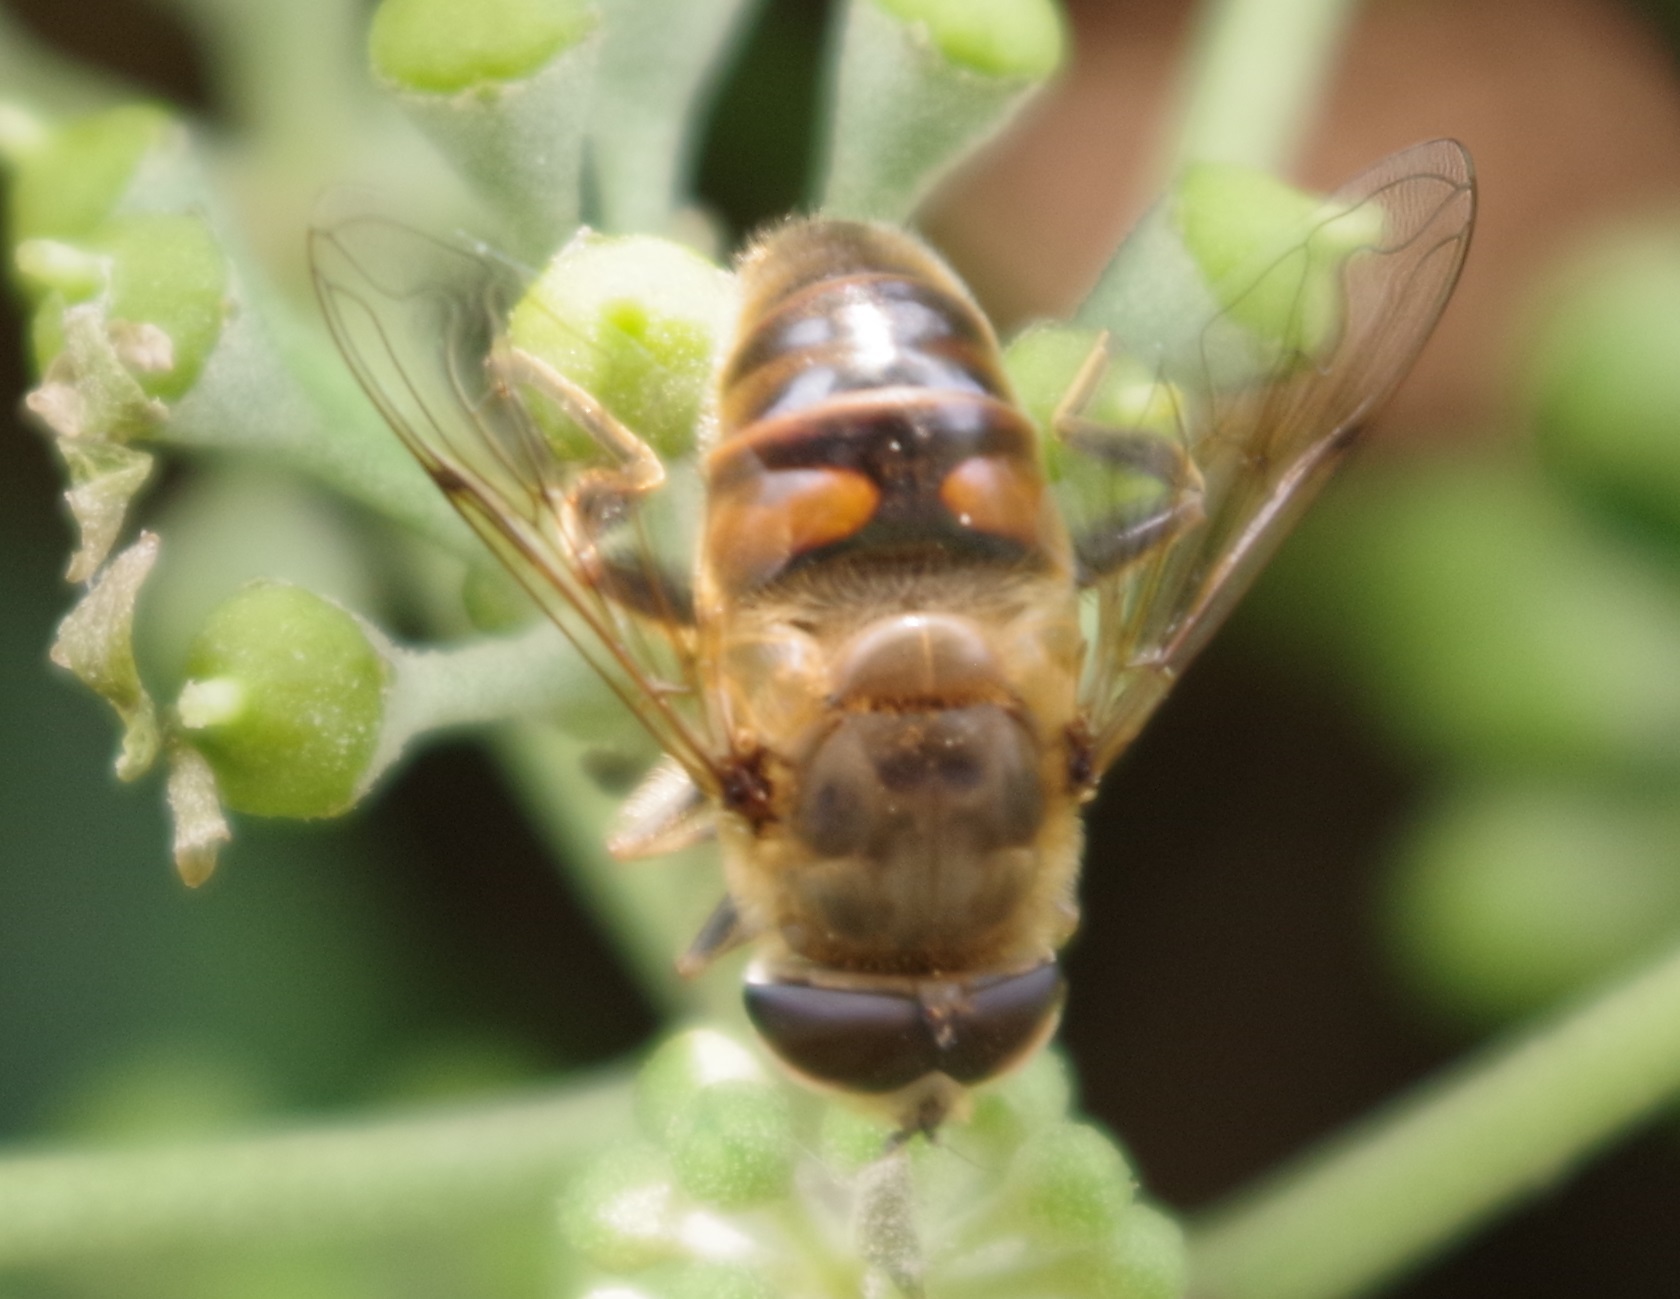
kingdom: Animalia
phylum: Arthropoda
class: Insecta
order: Diptera
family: Syrphidae
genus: Eristalis
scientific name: Eristalis tenax
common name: Drone fly
